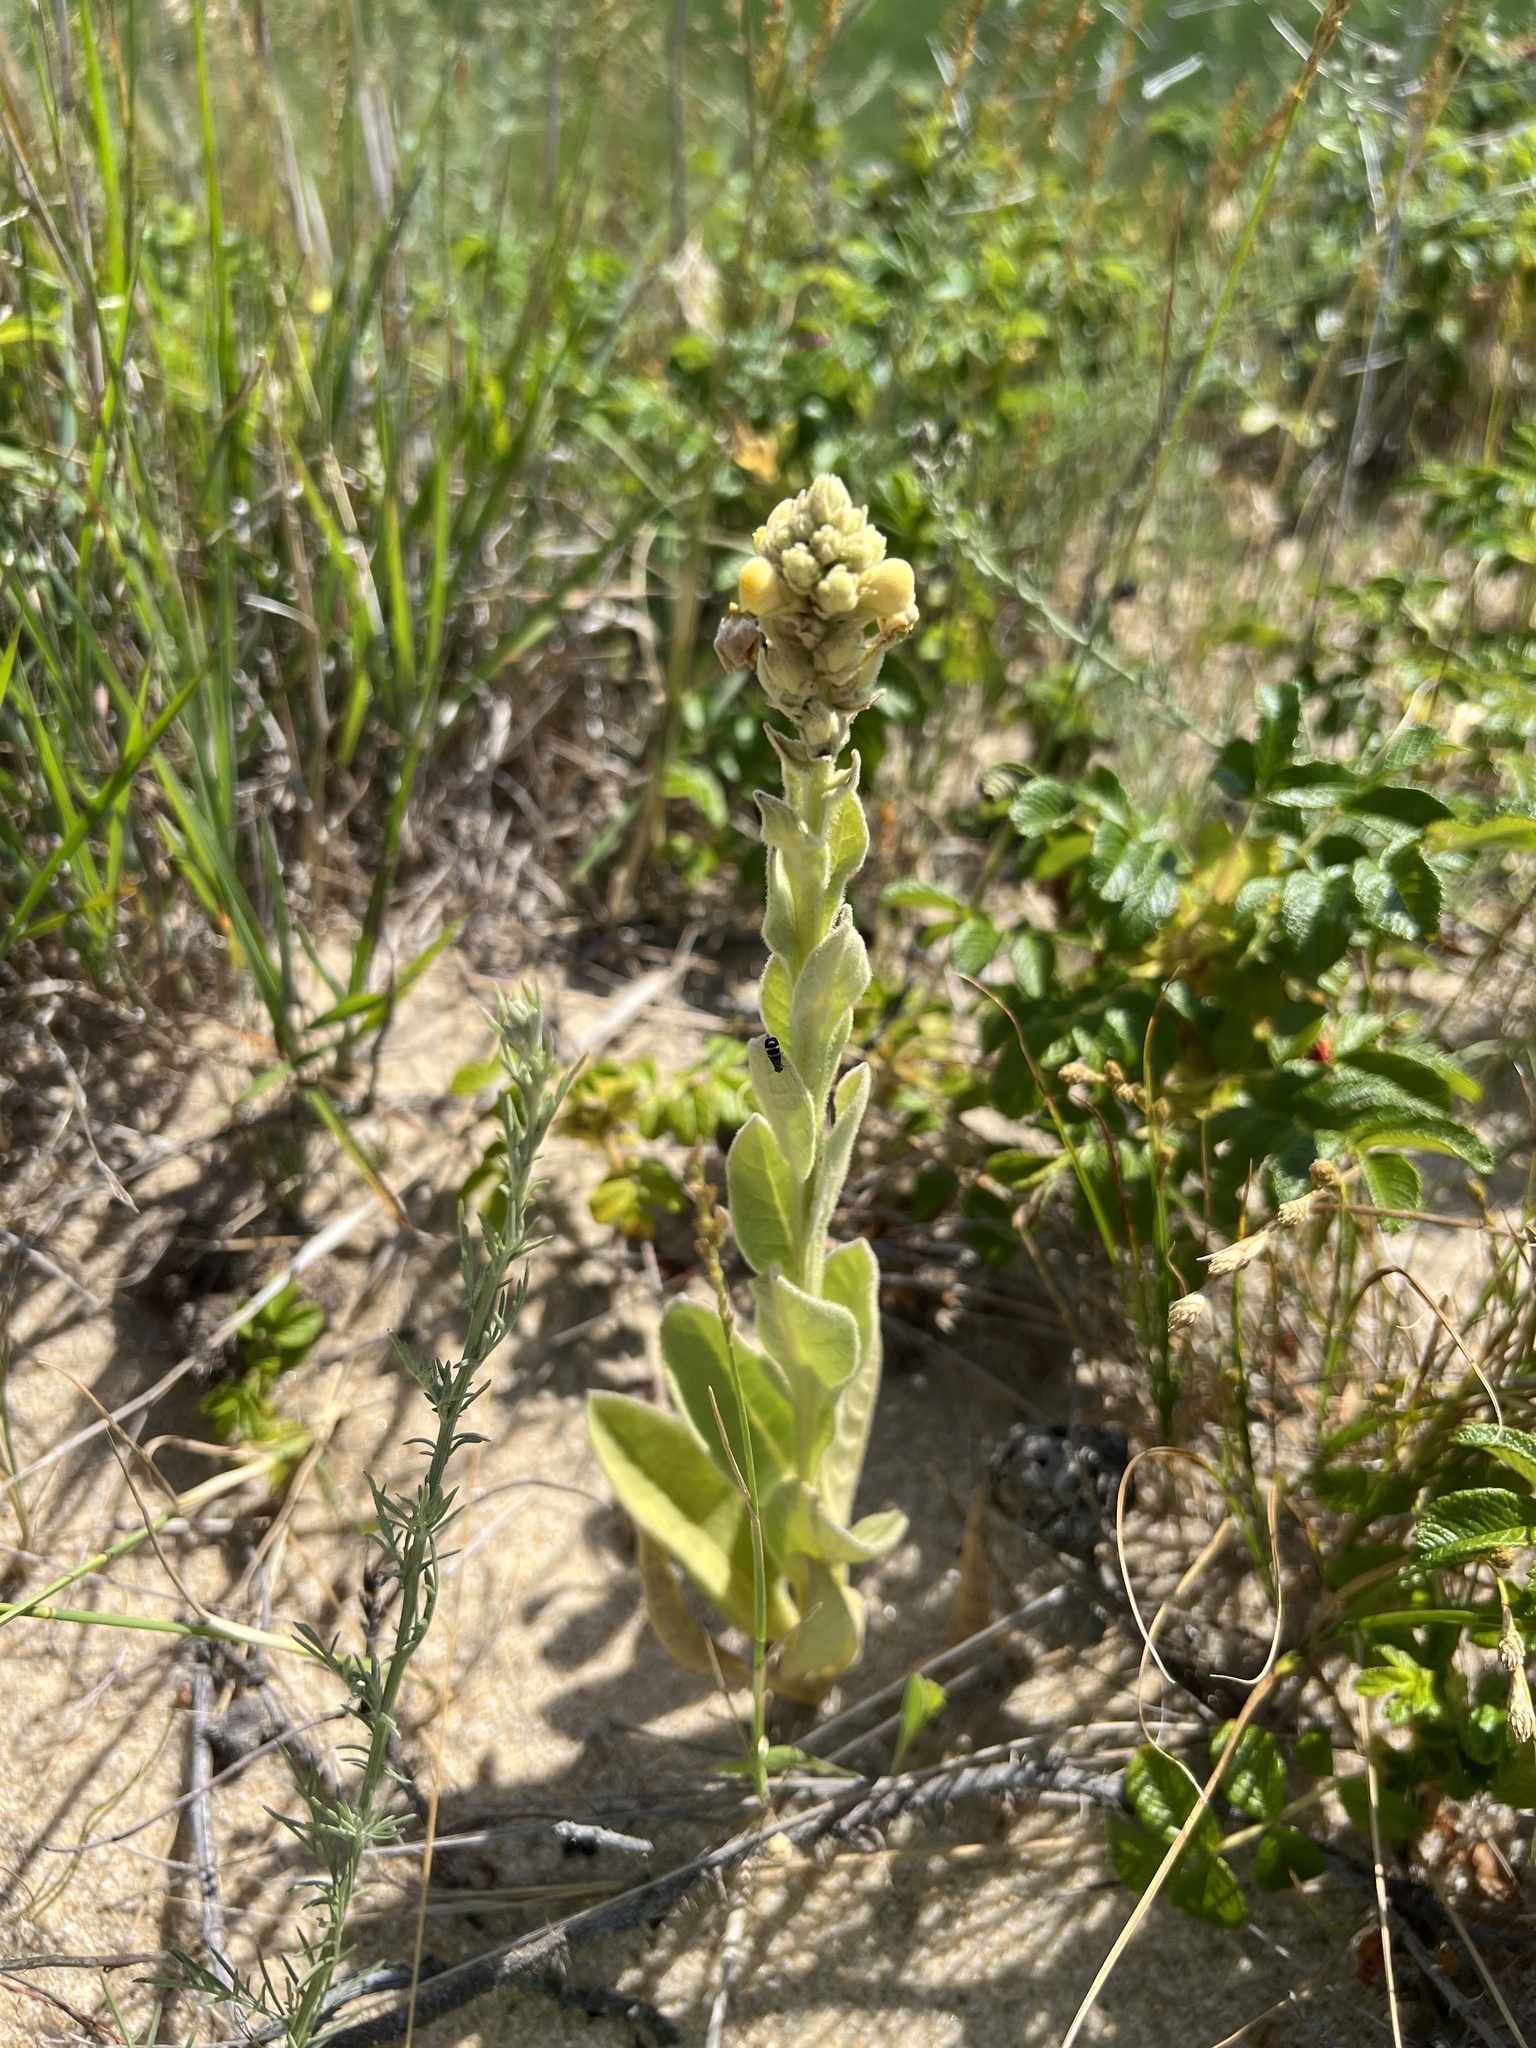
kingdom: Plantae
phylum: Tracheophyta
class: Magnoliopsida
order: Lamiales
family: Scrophulariaceae
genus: Verbascum
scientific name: Verbascum thapsus
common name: Common mullein
